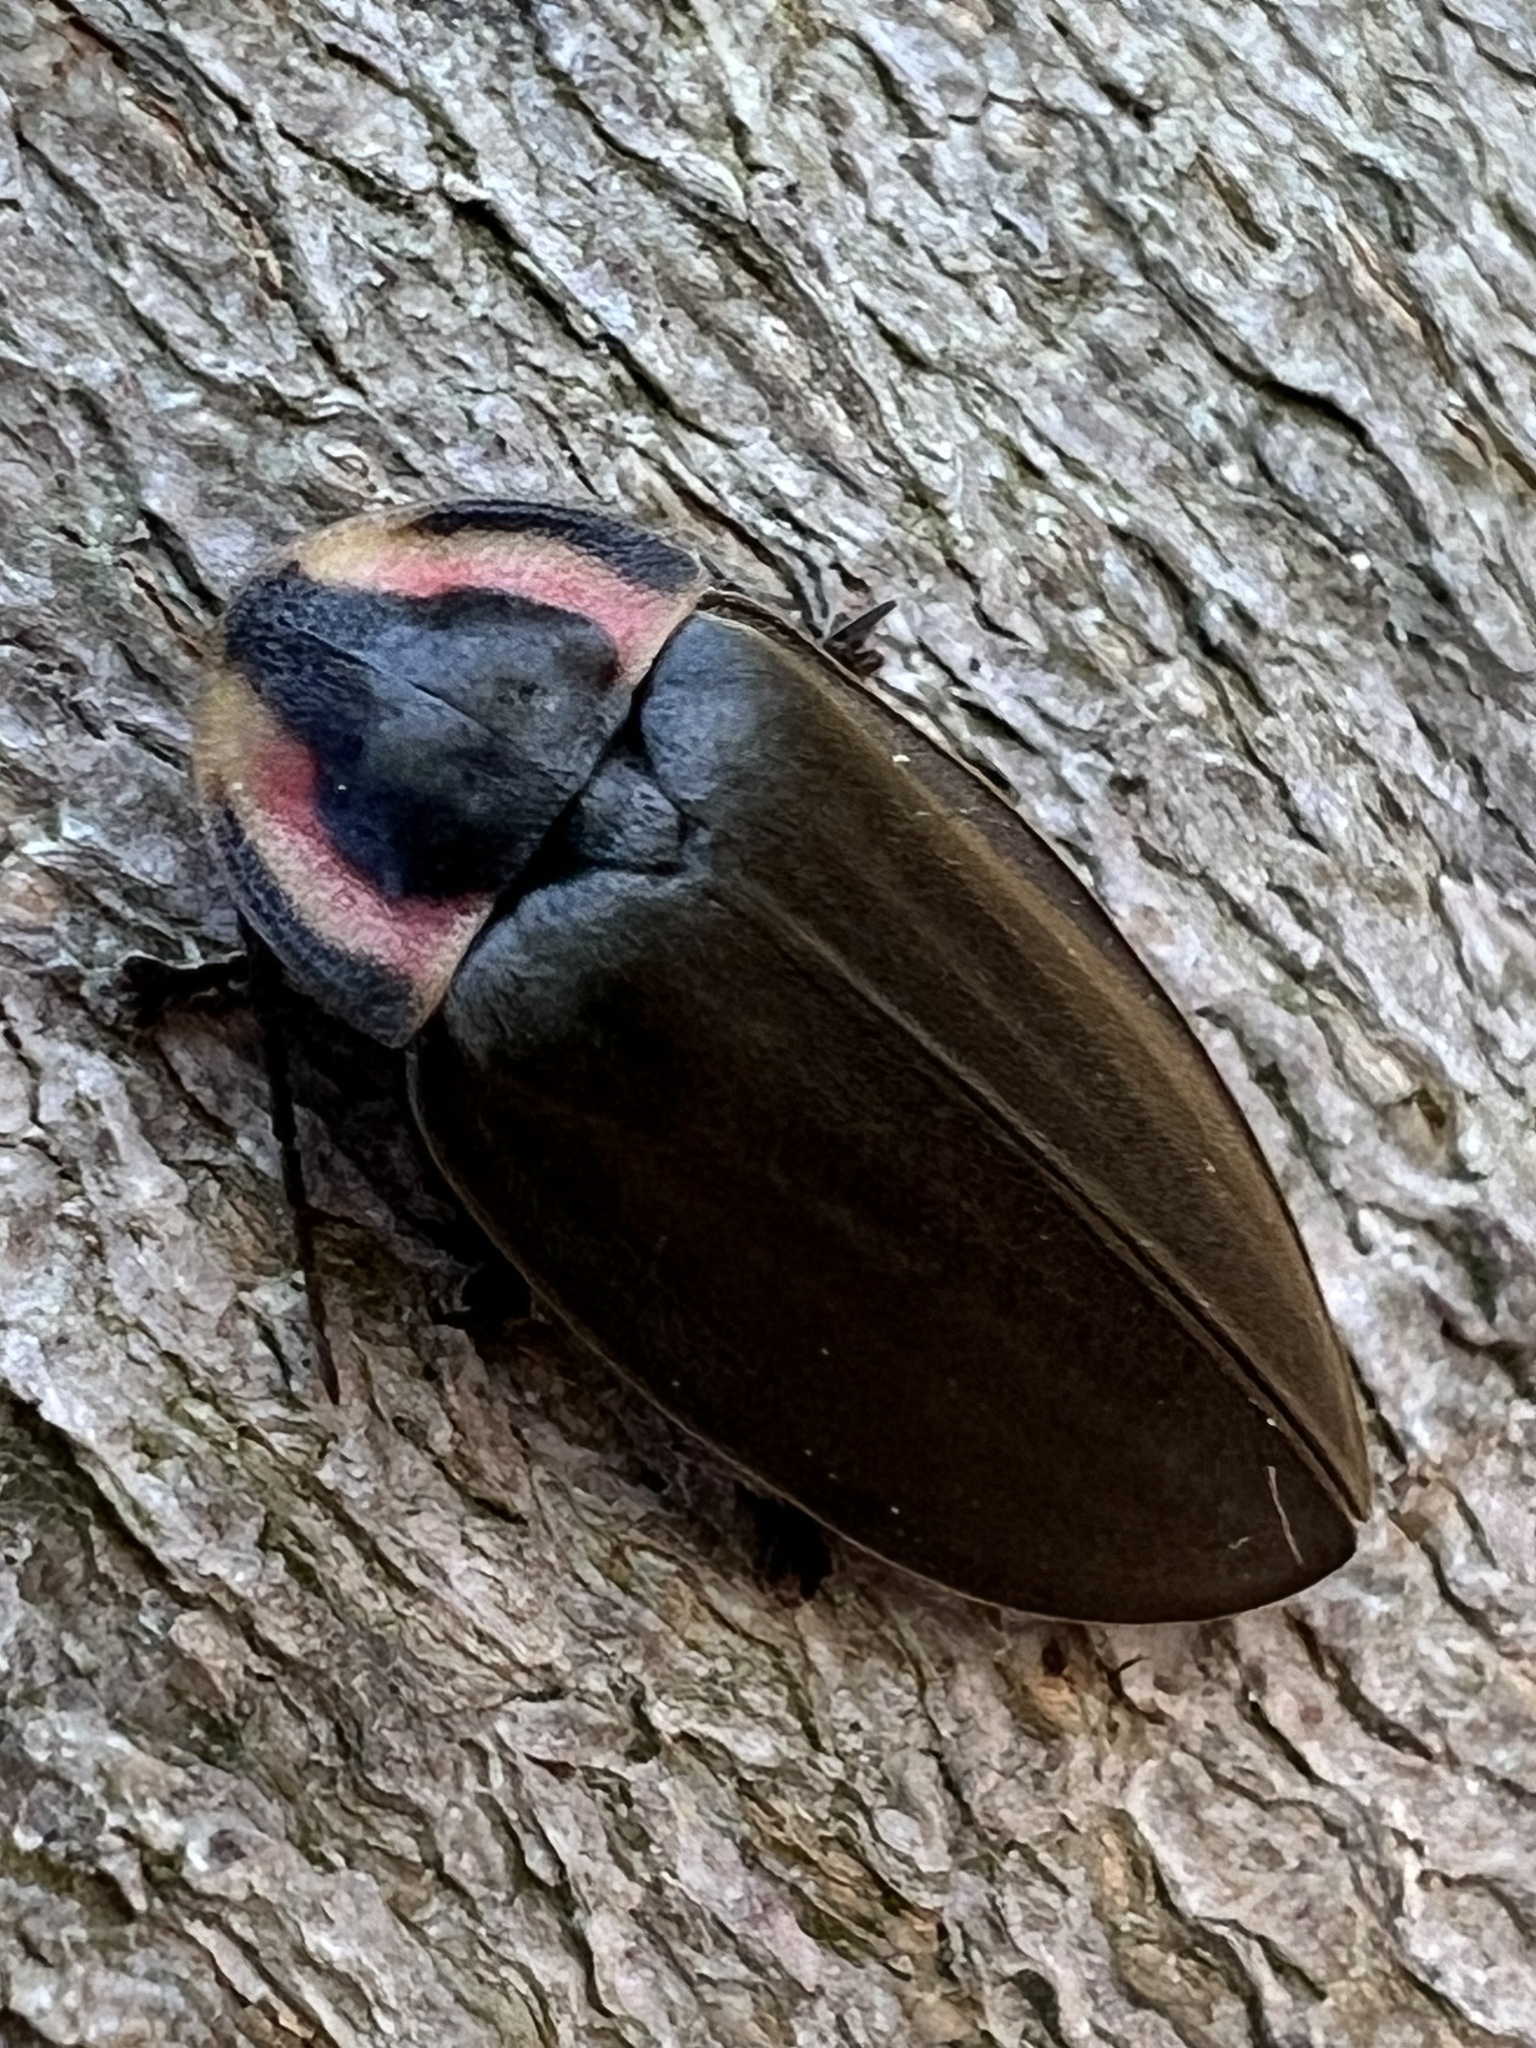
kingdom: Animalia
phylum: Arthropoda
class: Insecta
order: Coleoptera
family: Lampyridae
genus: Photinus
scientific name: Photinus corrusca
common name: Winter firefly
